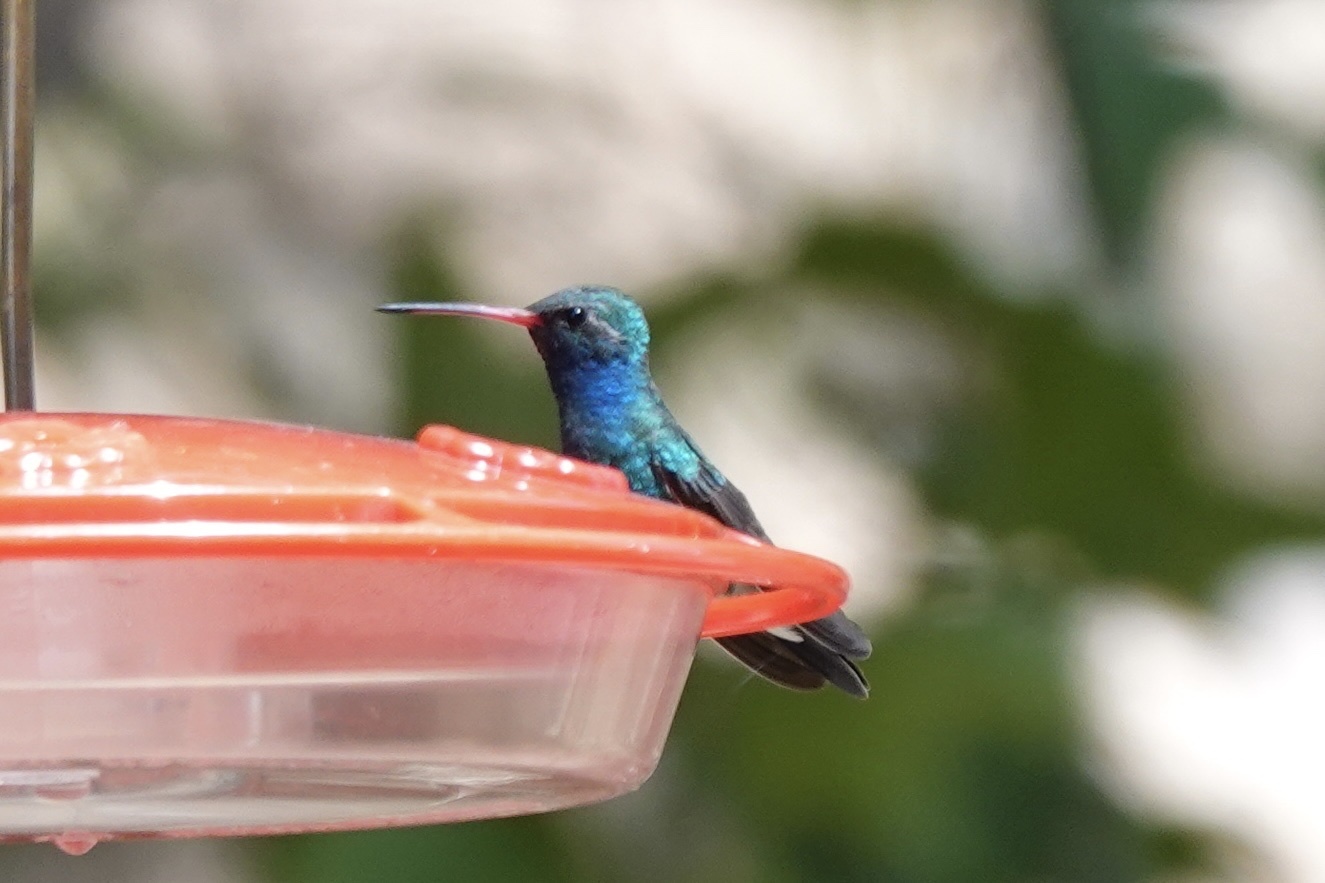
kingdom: Animalia
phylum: Chordata
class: Aves
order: Apodiformes
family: Trochilidae
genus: Cynanthus
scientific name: Cynanthus latirostris
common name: Broad-billed hummingbird
